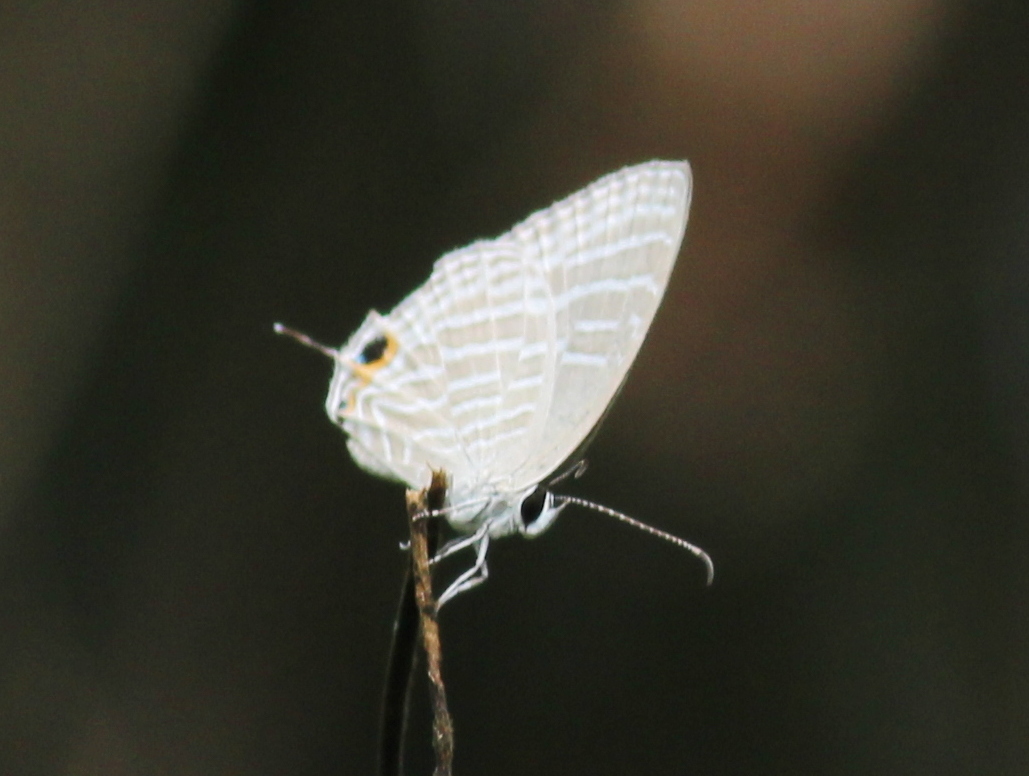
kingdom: Animalia
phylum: Arthropoda
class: Insecta
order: Lepidoptera
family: Lycaenidae
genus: Jamides
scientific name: Jamides celeno
